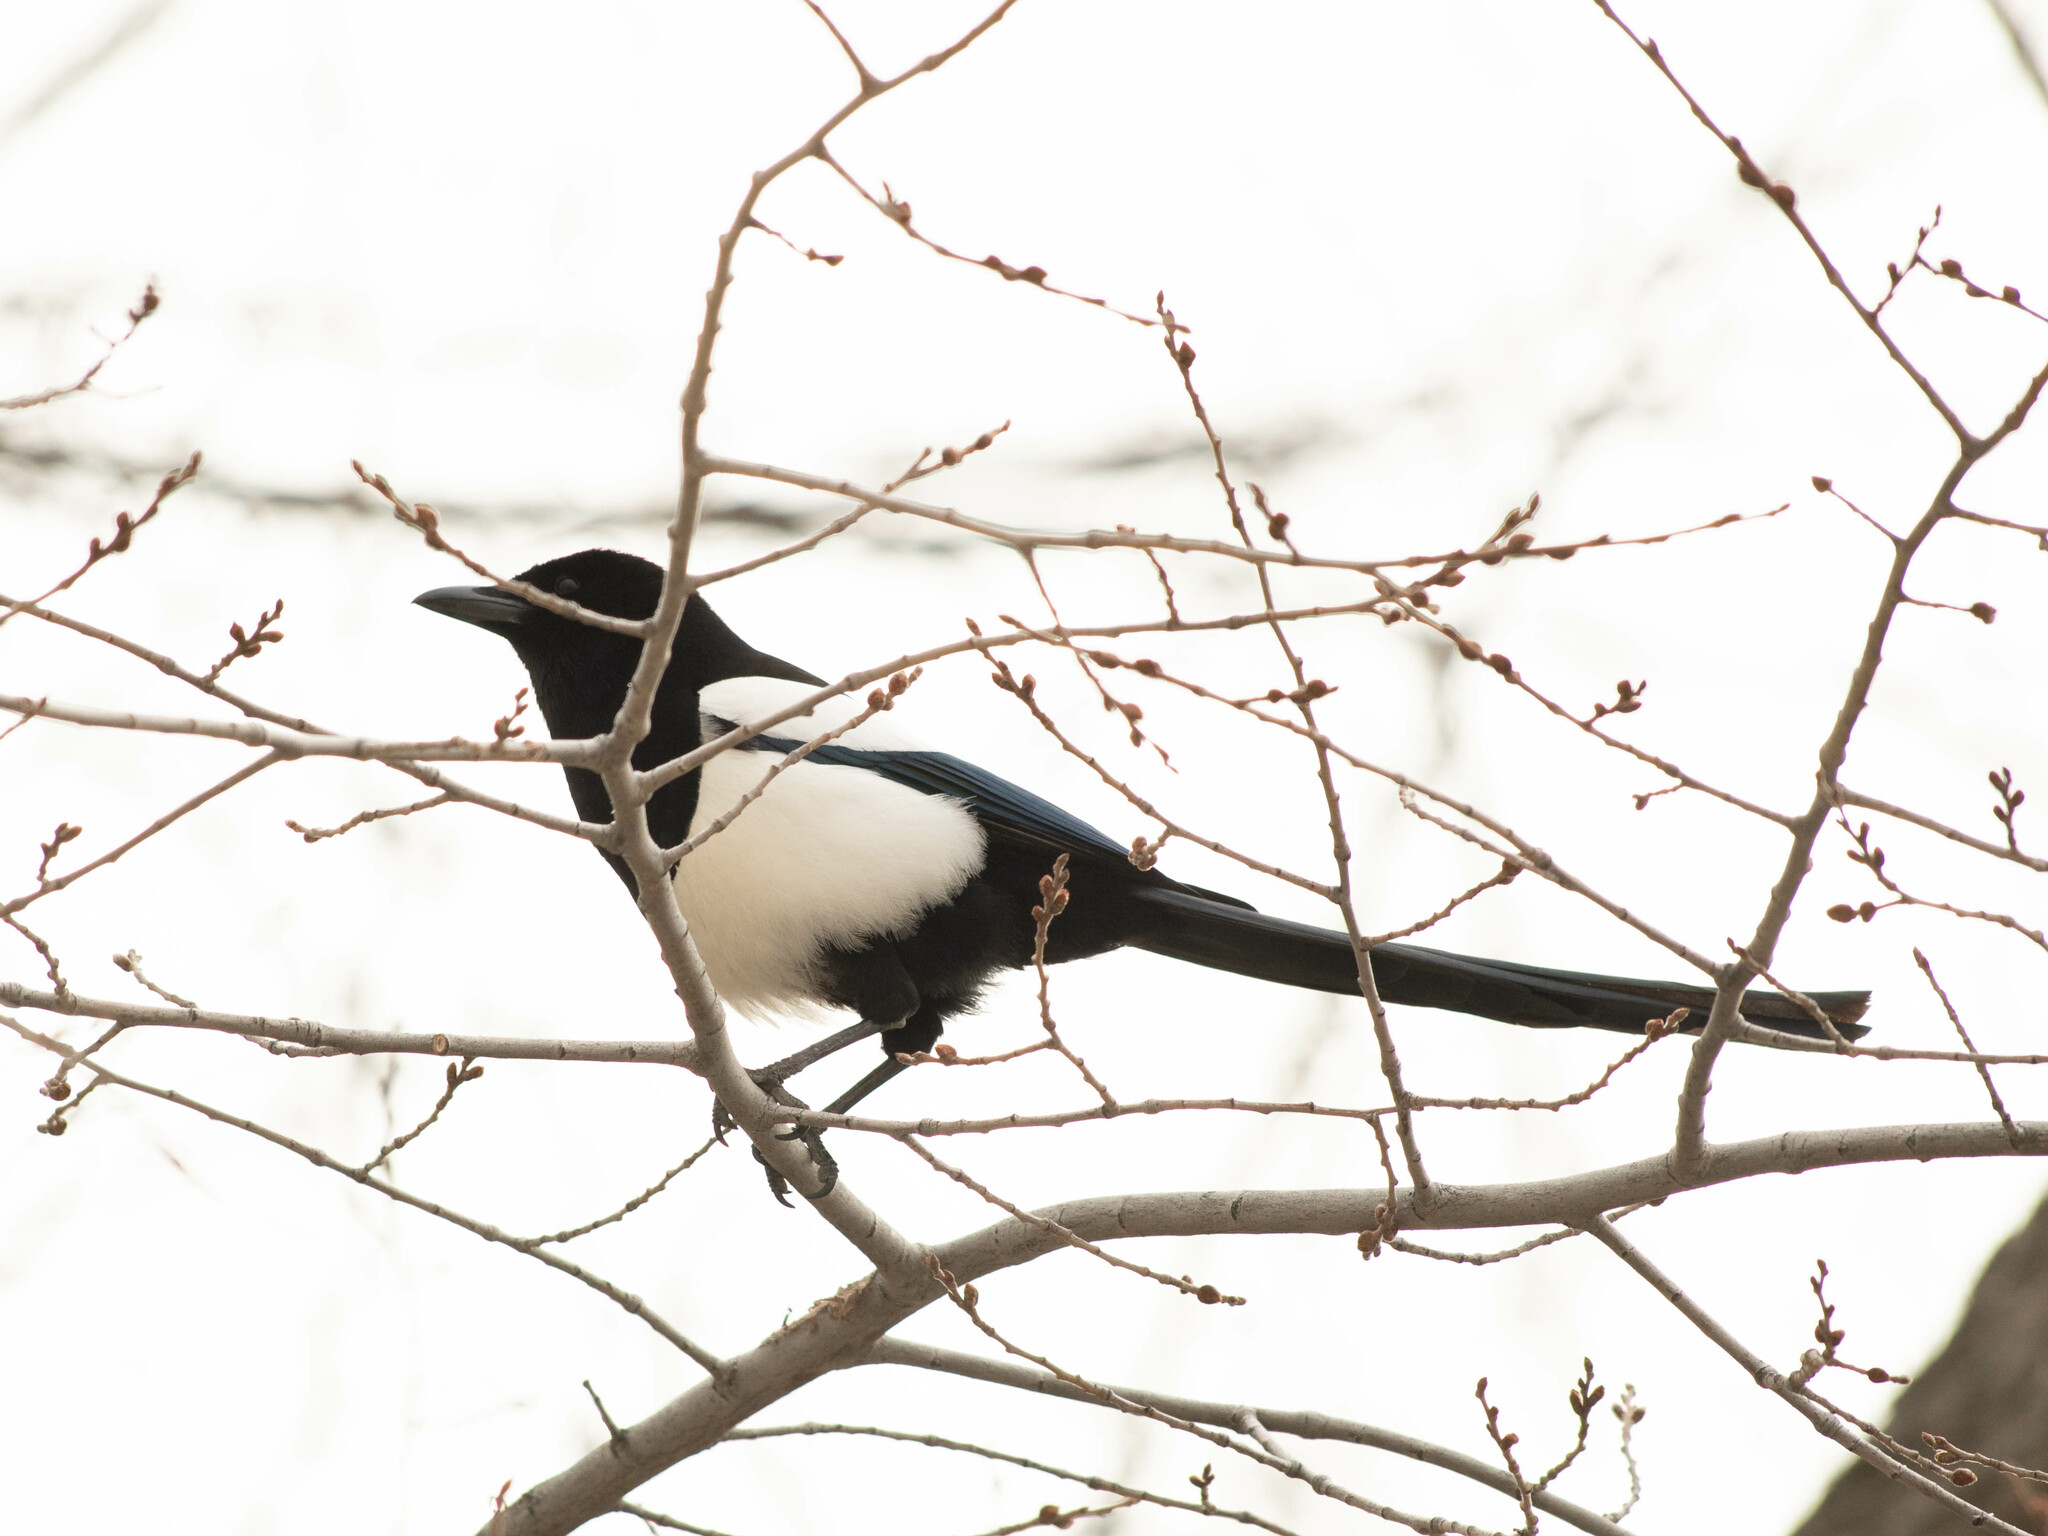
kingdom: Animalia
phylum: Chordata
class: Aves
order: Passeriformes
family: Corvidae
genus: Pica
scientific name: Pica hudsonia
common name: Black-billed magpie
